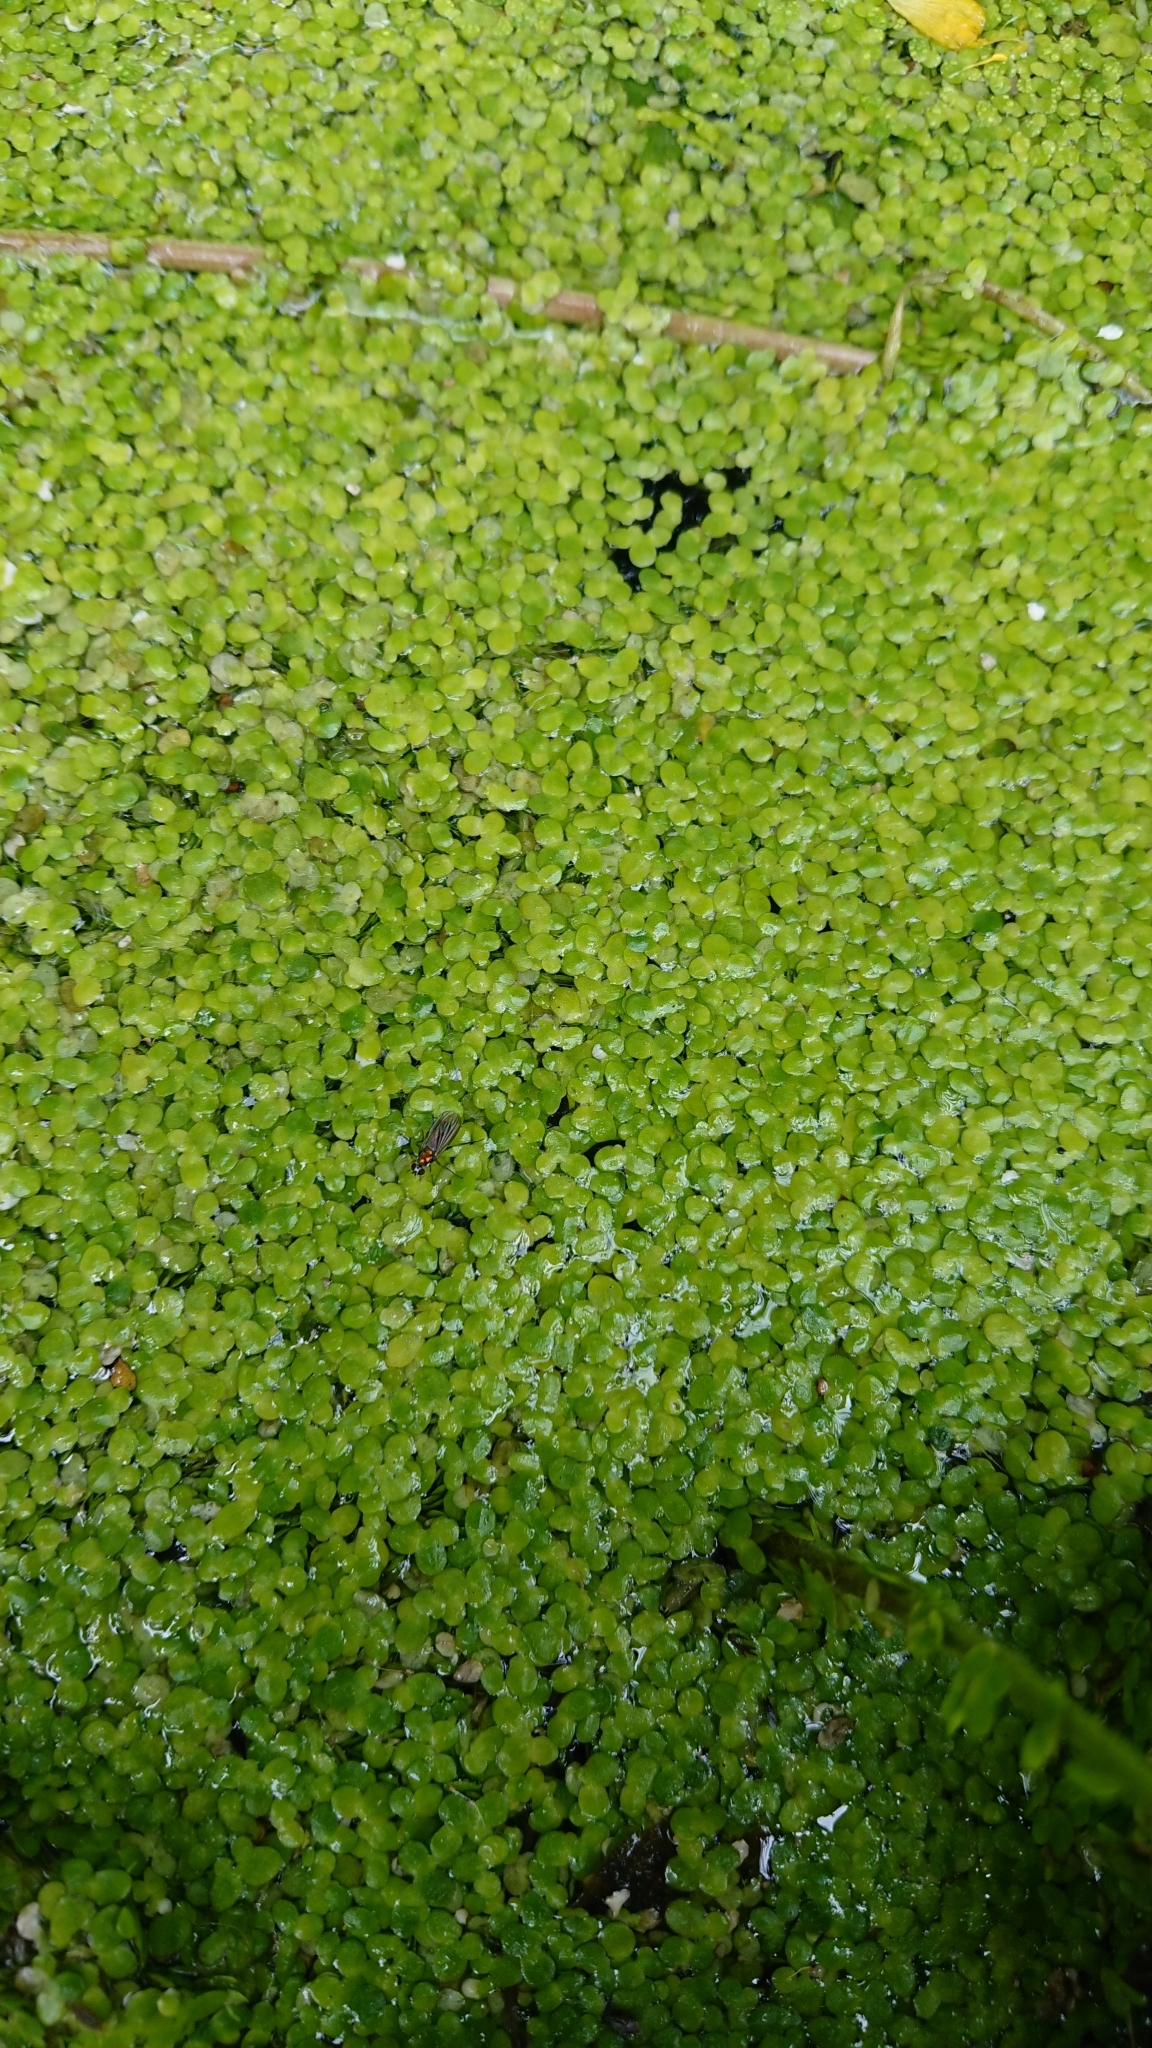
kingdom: Plantae
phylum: Tracheophyta
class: Liliopsida
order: Alismatales
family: Araceae
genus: Lemna
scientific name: Lemna minor
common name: Common duckweed
